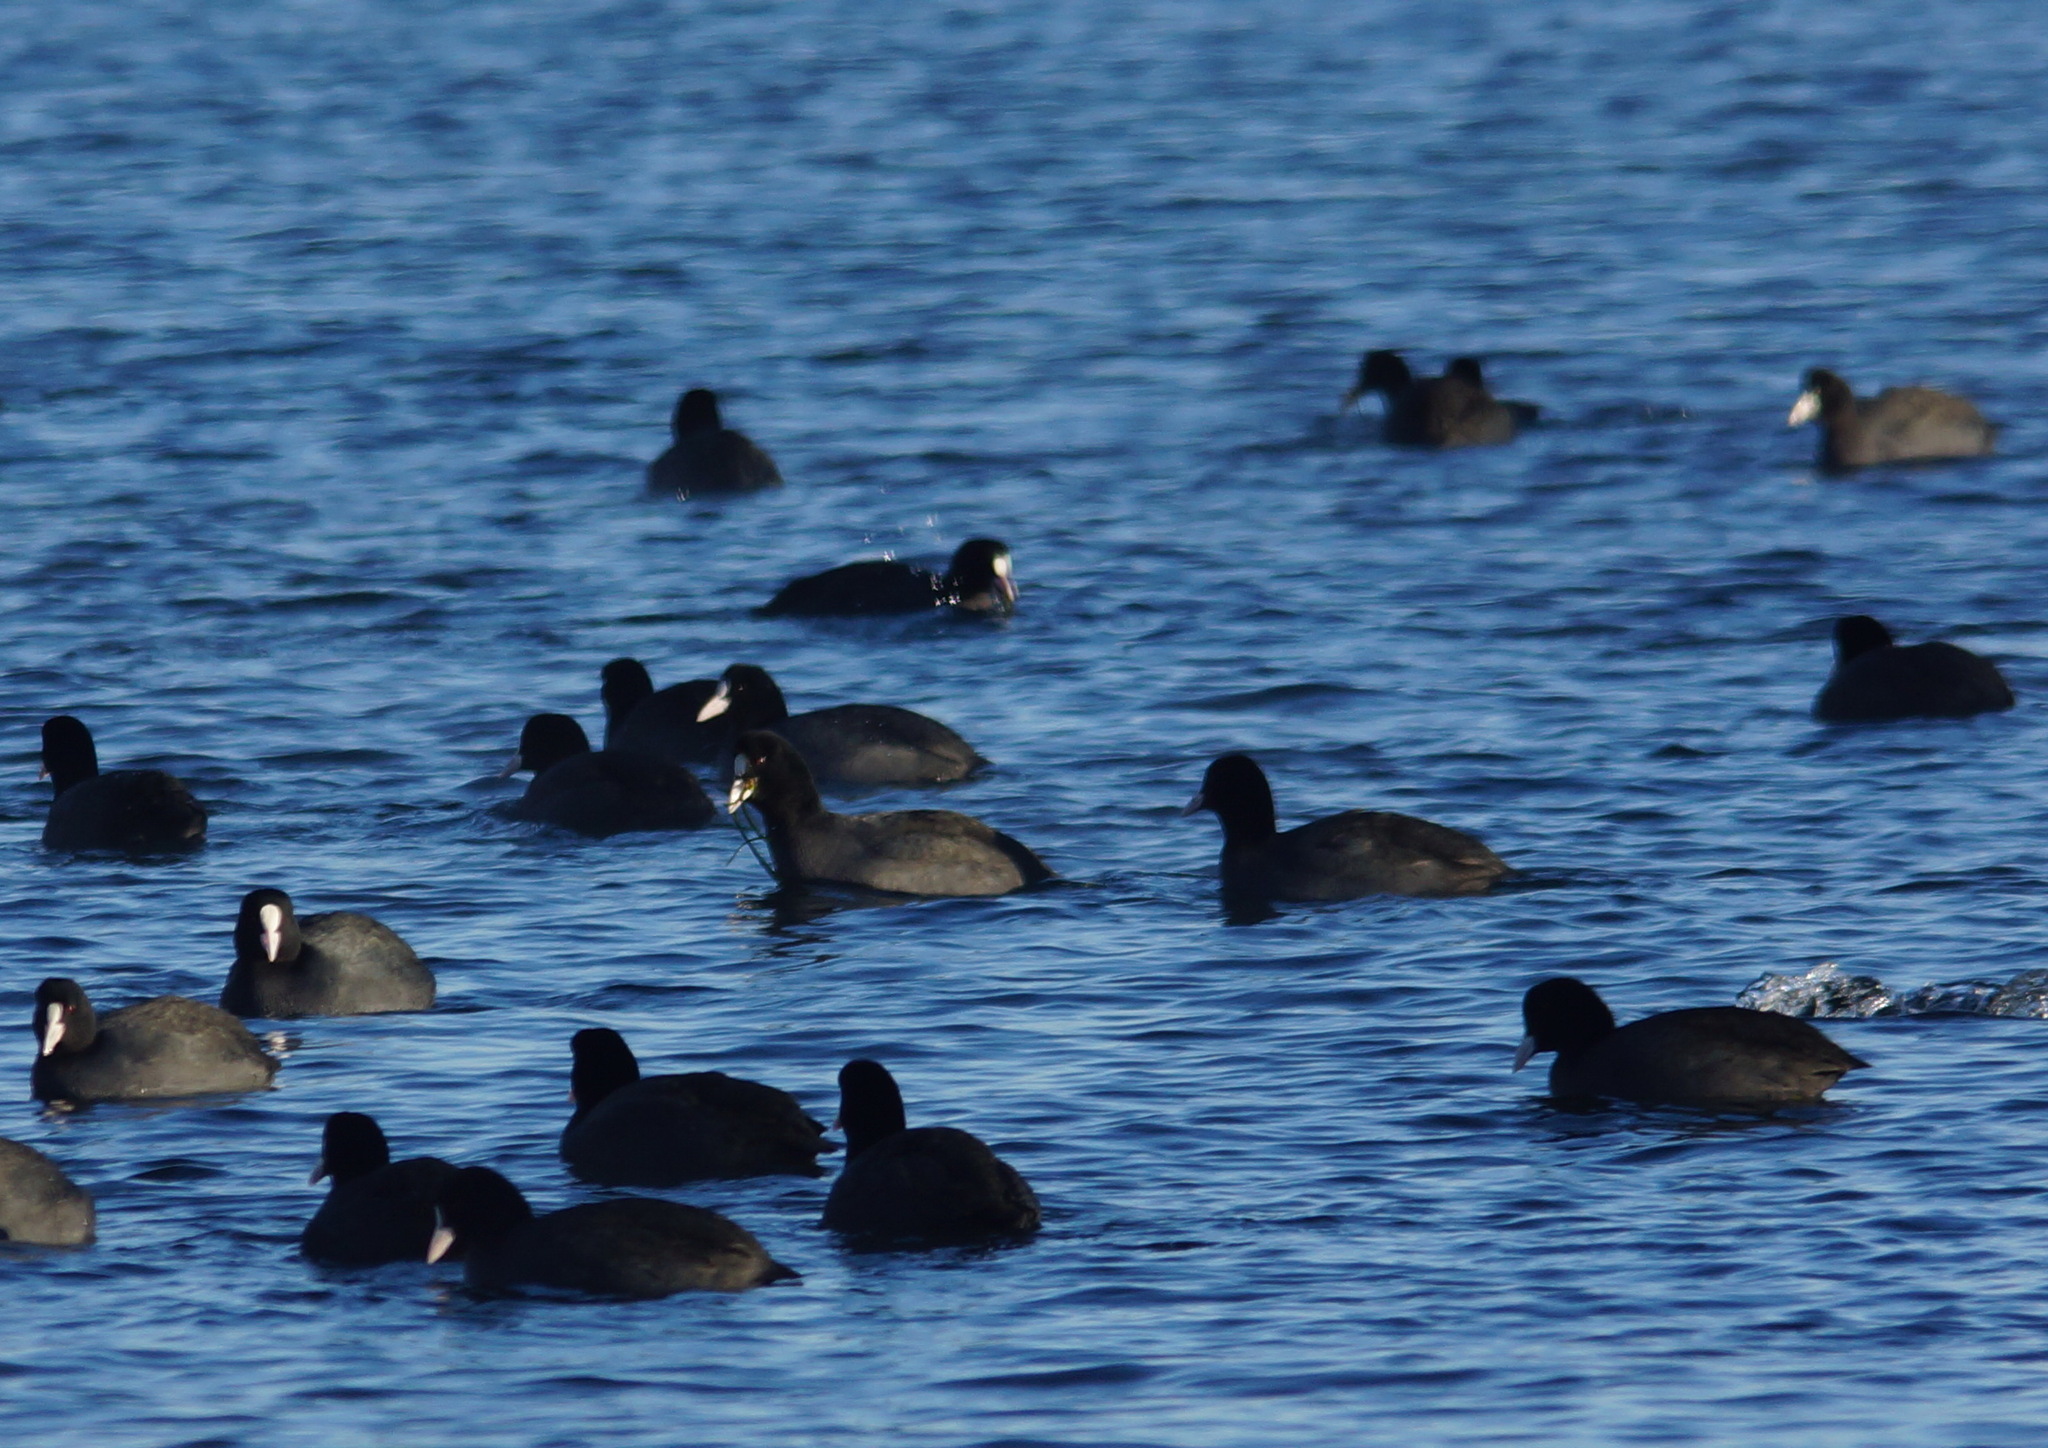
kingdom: Animalia
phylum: Chordata
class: Aves
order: Gruiformes
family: Rallidae
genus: Fulica
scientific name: Fulica atra
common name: Eurasian coot
